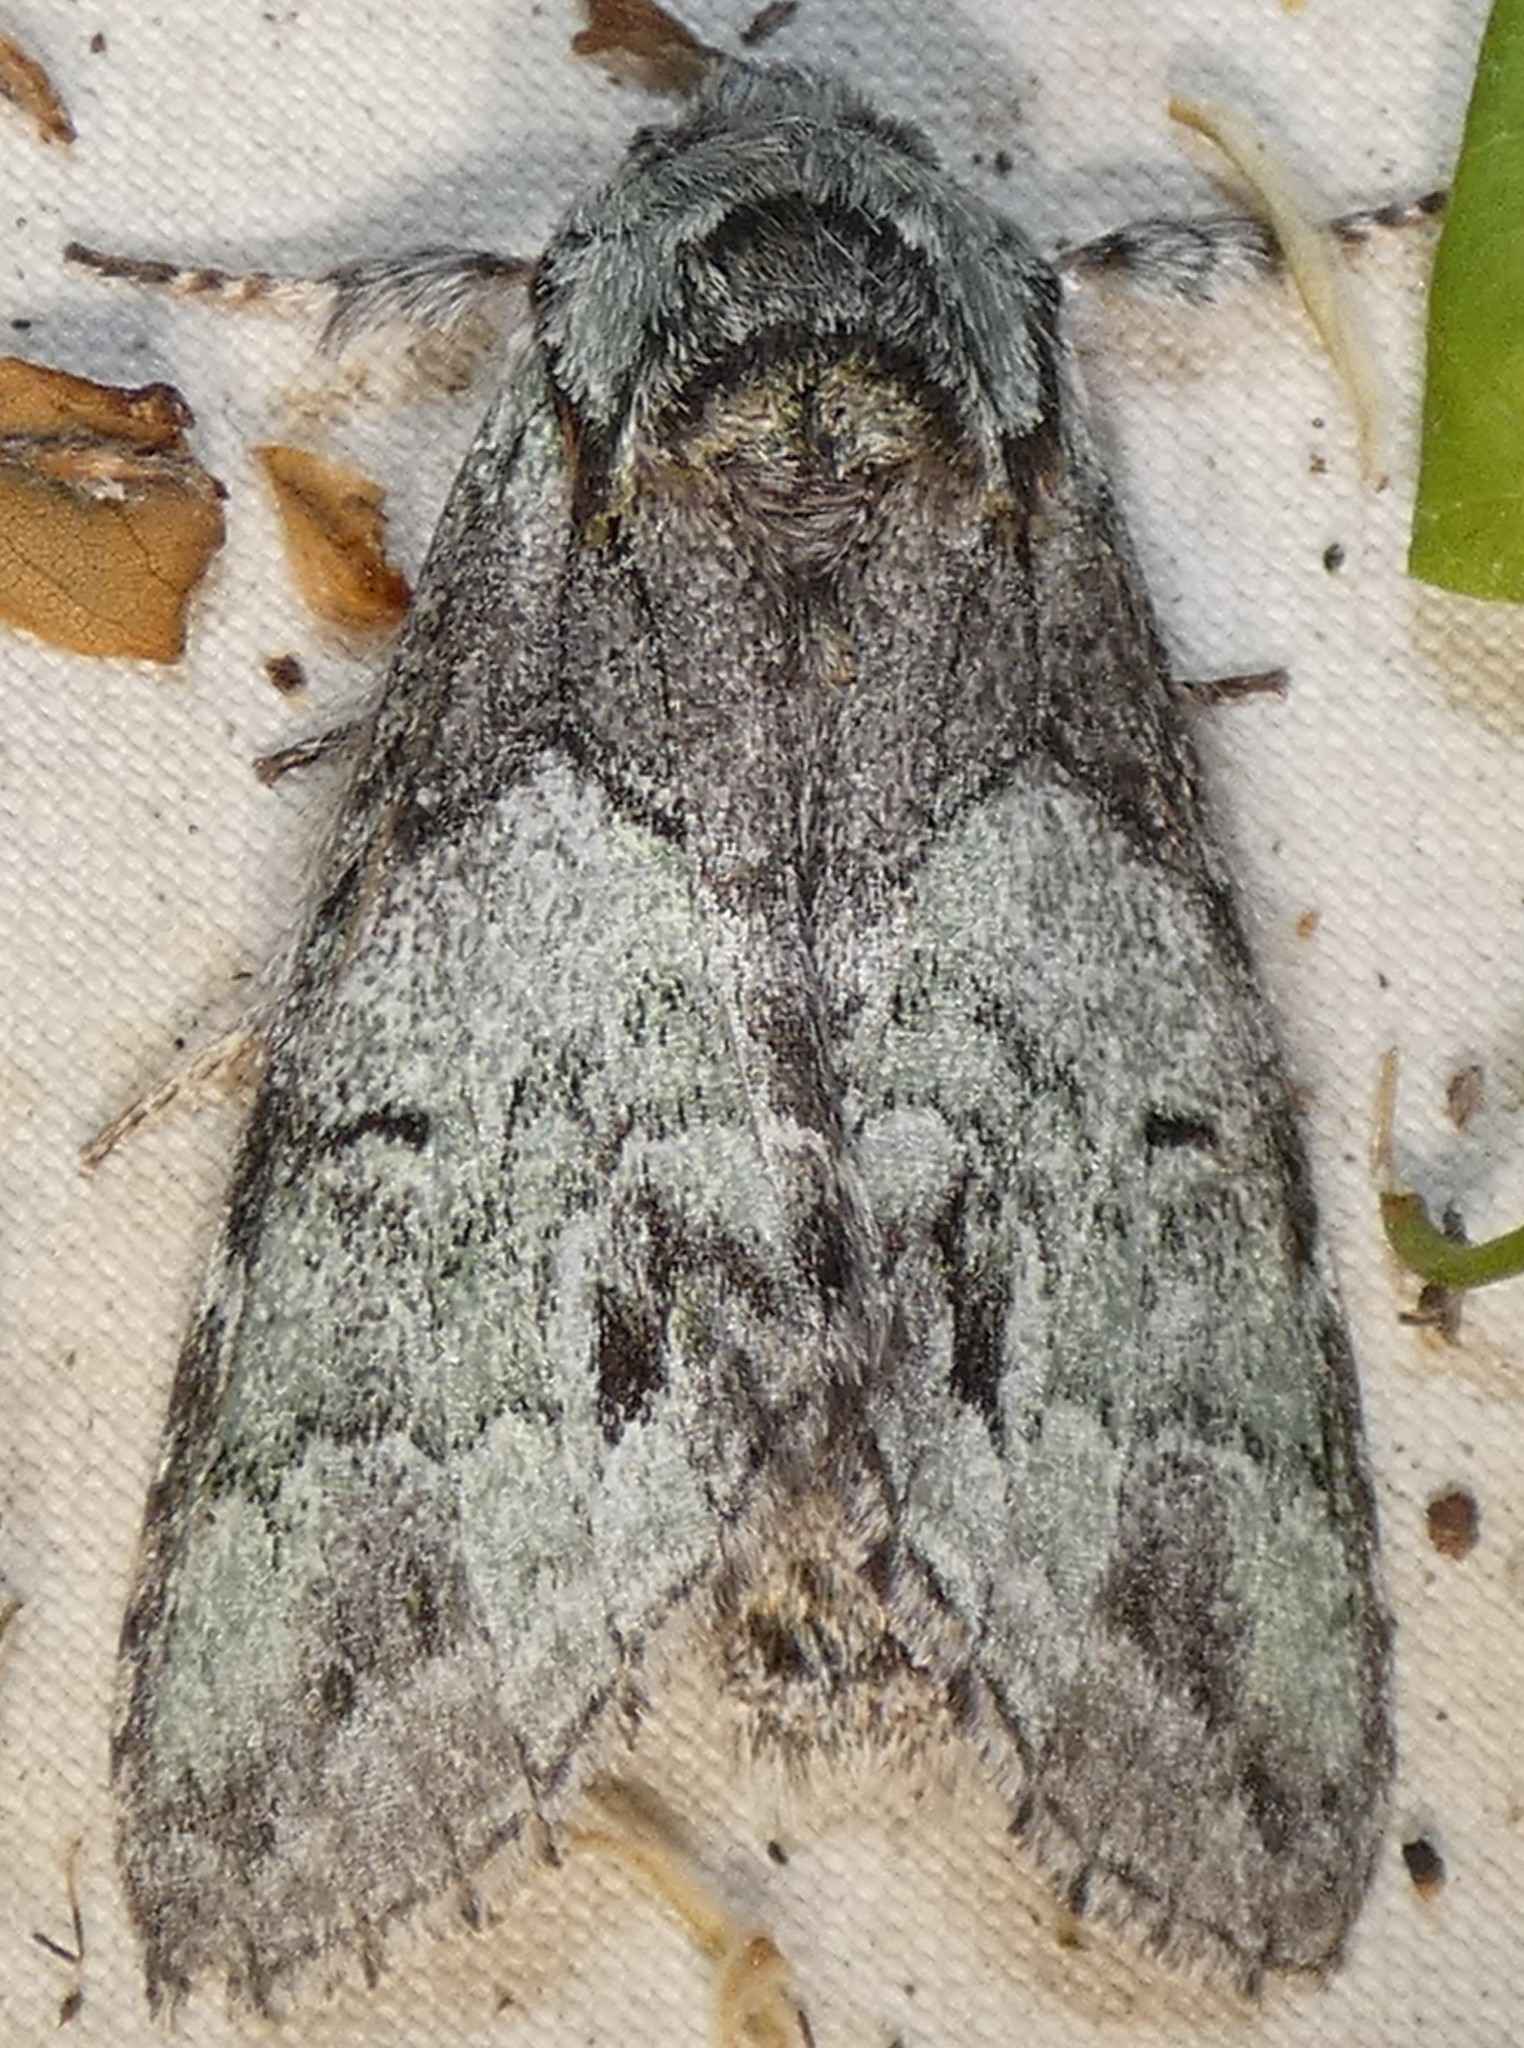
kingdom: Animalia
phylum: Arthropoda
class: Insecta
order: Lepidoptera
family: Notodontidae
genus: Macrurocampa
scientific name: Macrurocampa marthesia
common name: Mottled prominent
